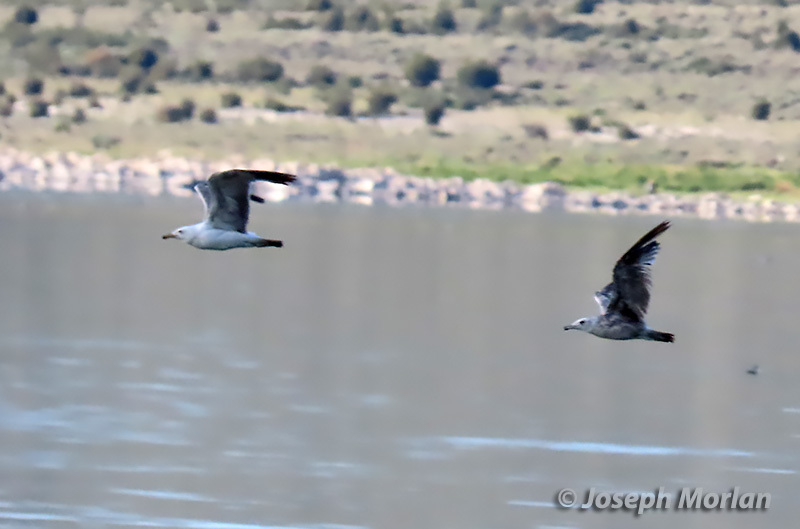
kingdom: Animalia
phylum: Chordata
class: Aves
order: Charadriiformes
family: Laridae
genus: Larus
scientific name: Larus californicus
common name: California gull
